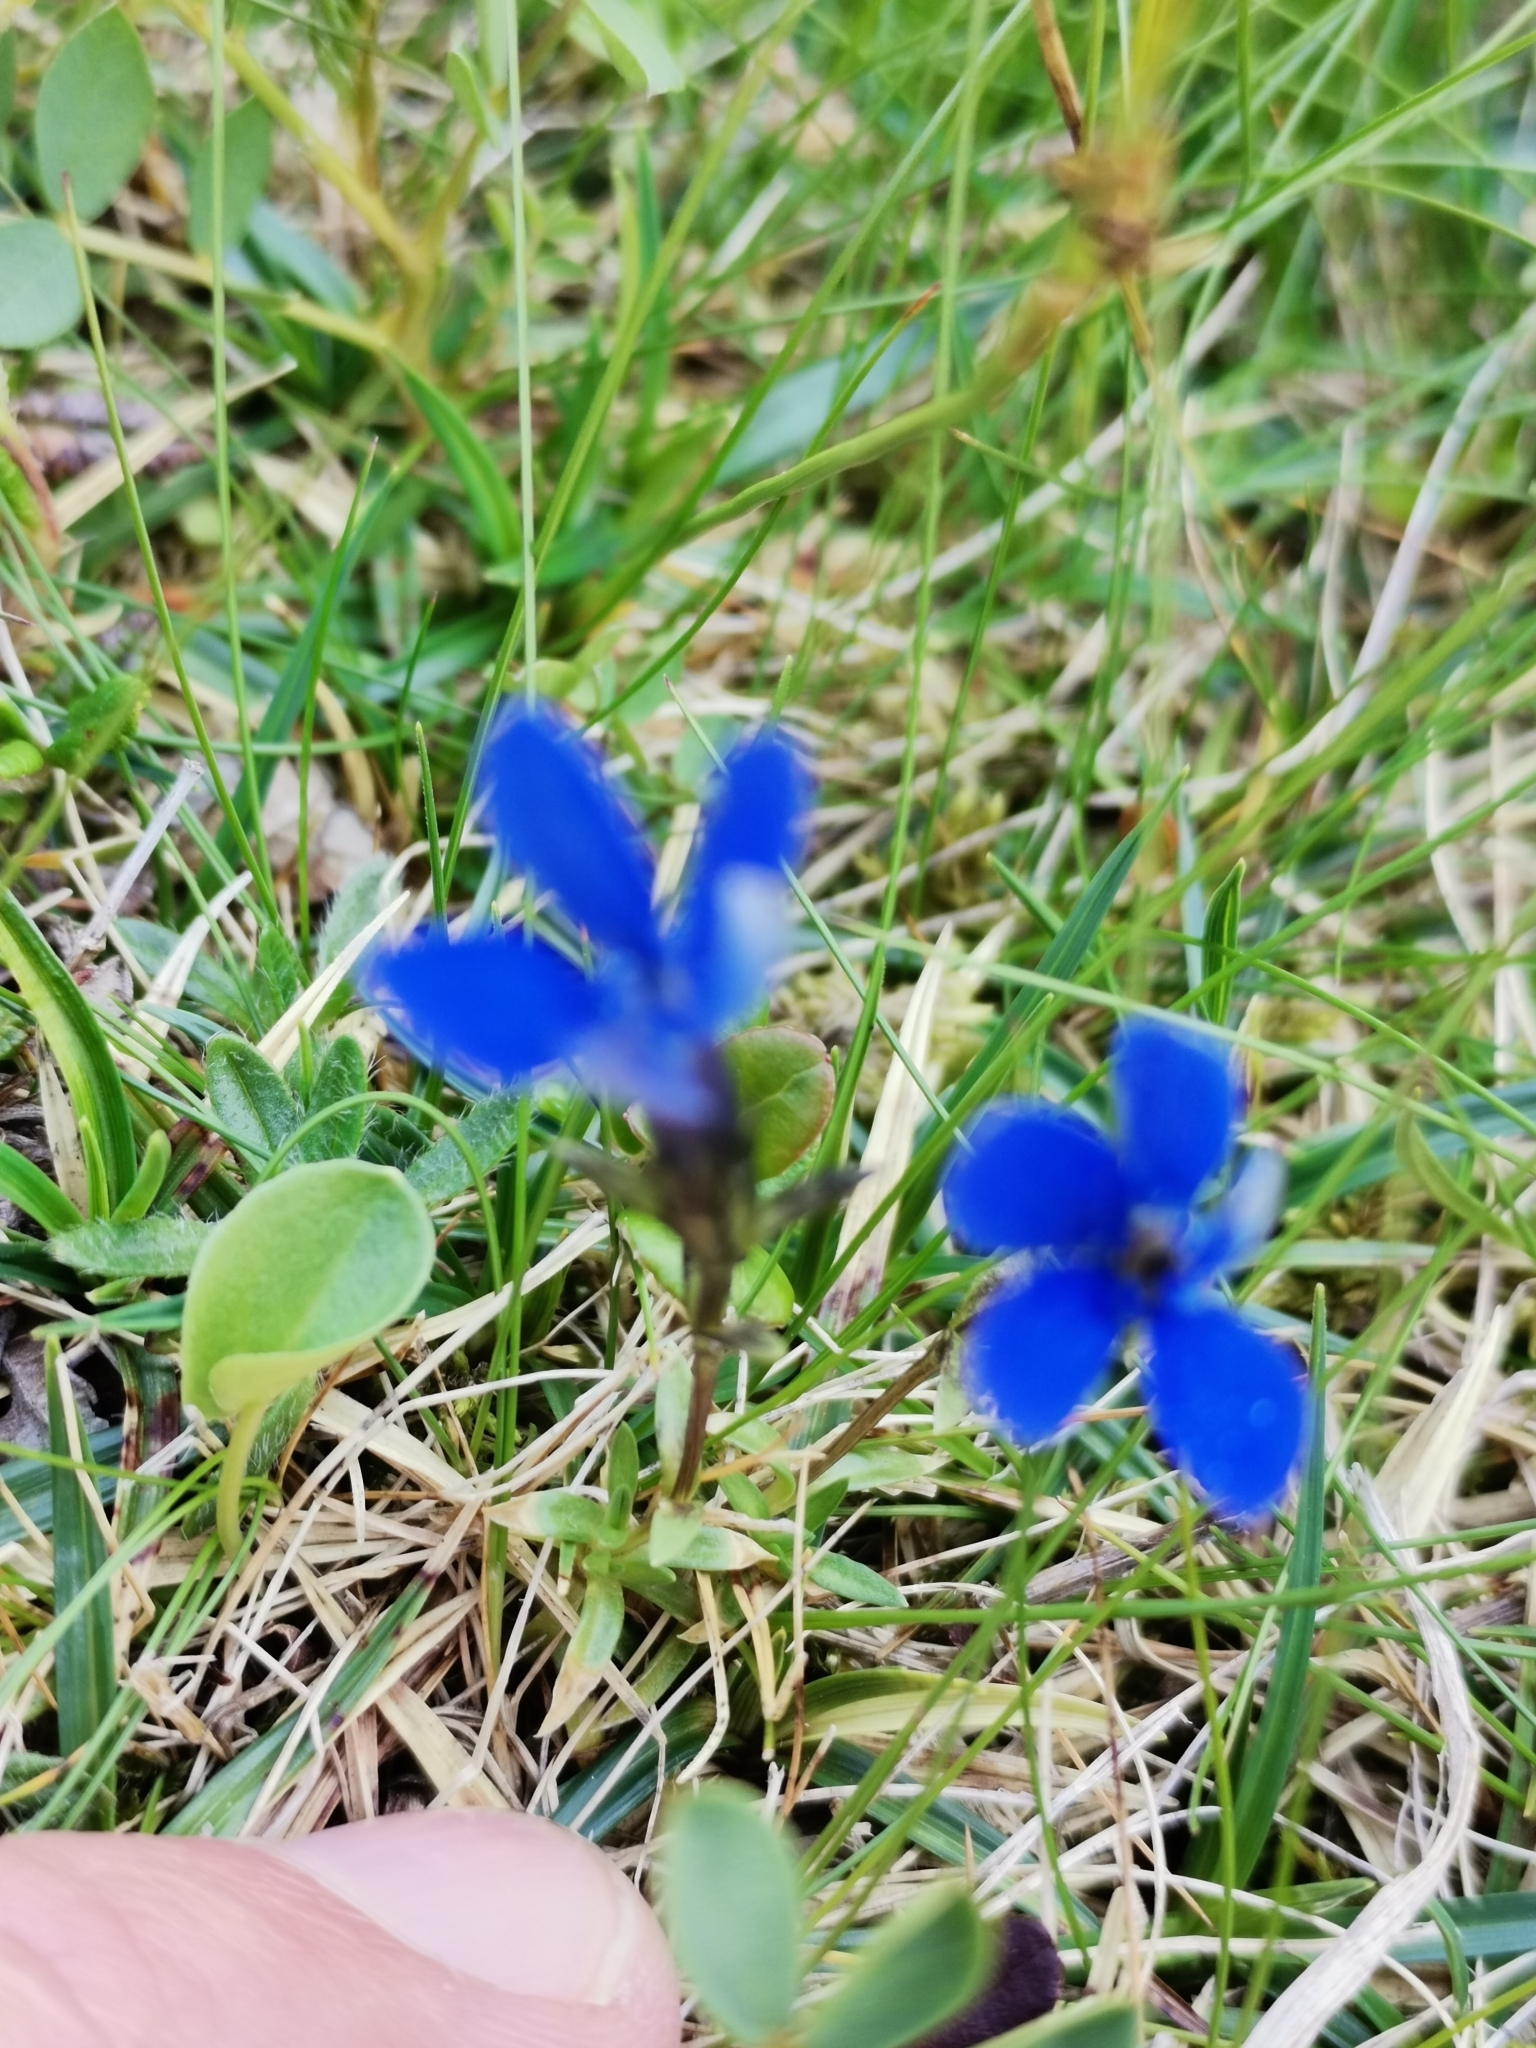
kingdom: Plantae
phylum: Tracheophyta
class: Magnoliopsida
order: Gentianales
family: Gentianaceae
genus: Gentiana
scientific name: Gentiana pumila
